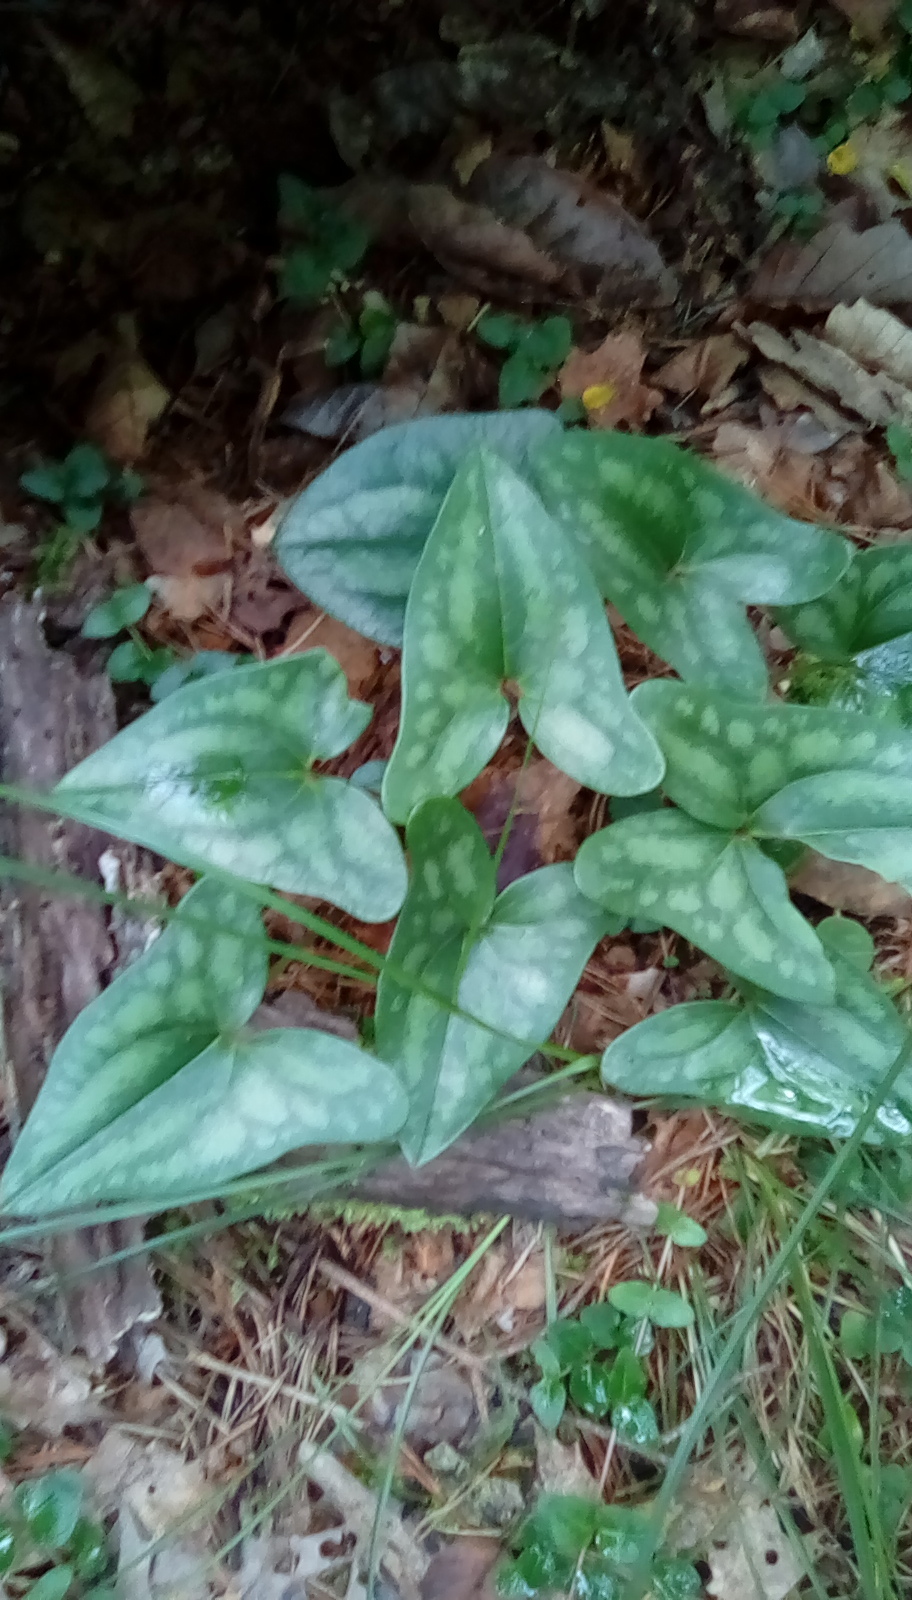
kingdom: Plantae
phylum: Tracheophyta
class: Magnoliopsida
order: Piperales
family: Aristolochiaceae
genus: Hexastylis
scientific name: Hexastylis arifolia
